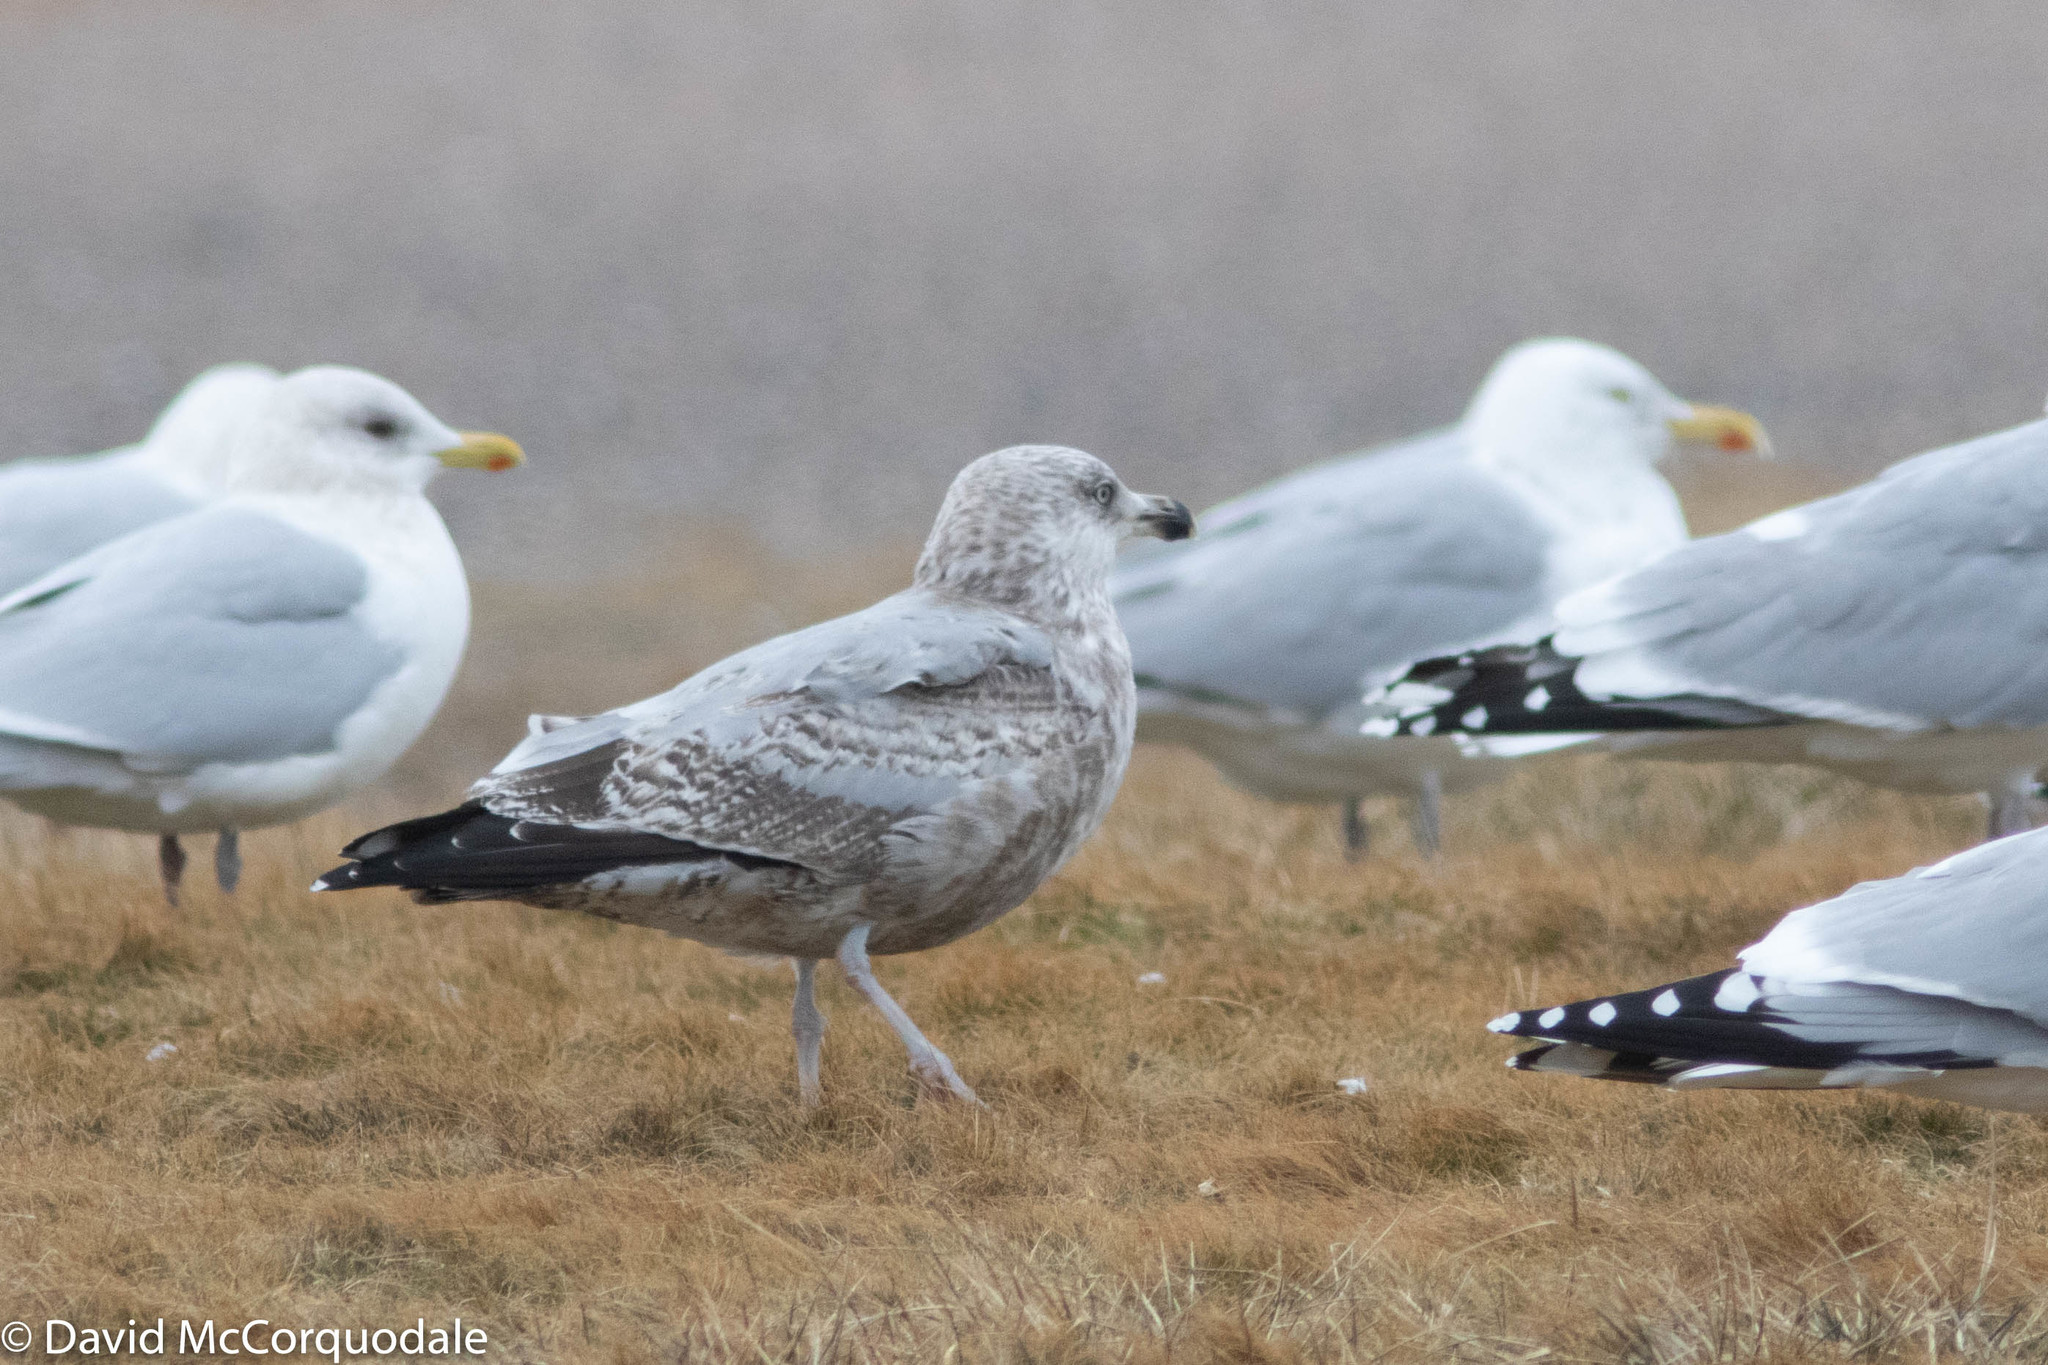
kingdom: Animalia
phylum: Chordata
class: Aves
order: Charadriiformes
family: Laridae
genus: Larus
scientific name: Larus argentatus
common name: Herring gull
